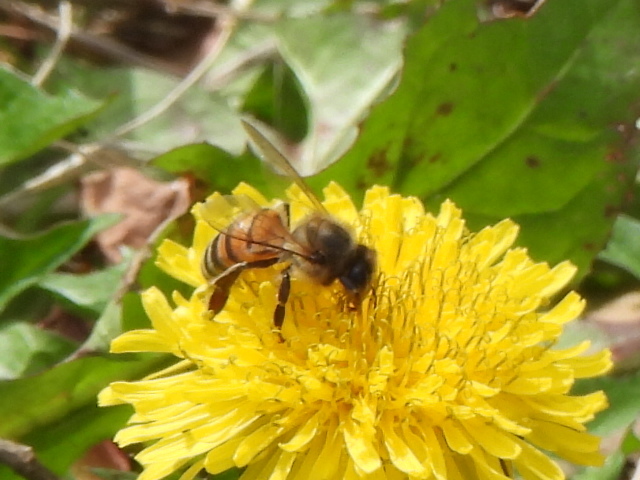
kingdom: Animalia
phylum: Arthropoda
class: Insecta
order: Hymenoptera
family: Apidae
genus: Apis
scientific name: Apis mellifera
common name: Honey bee
